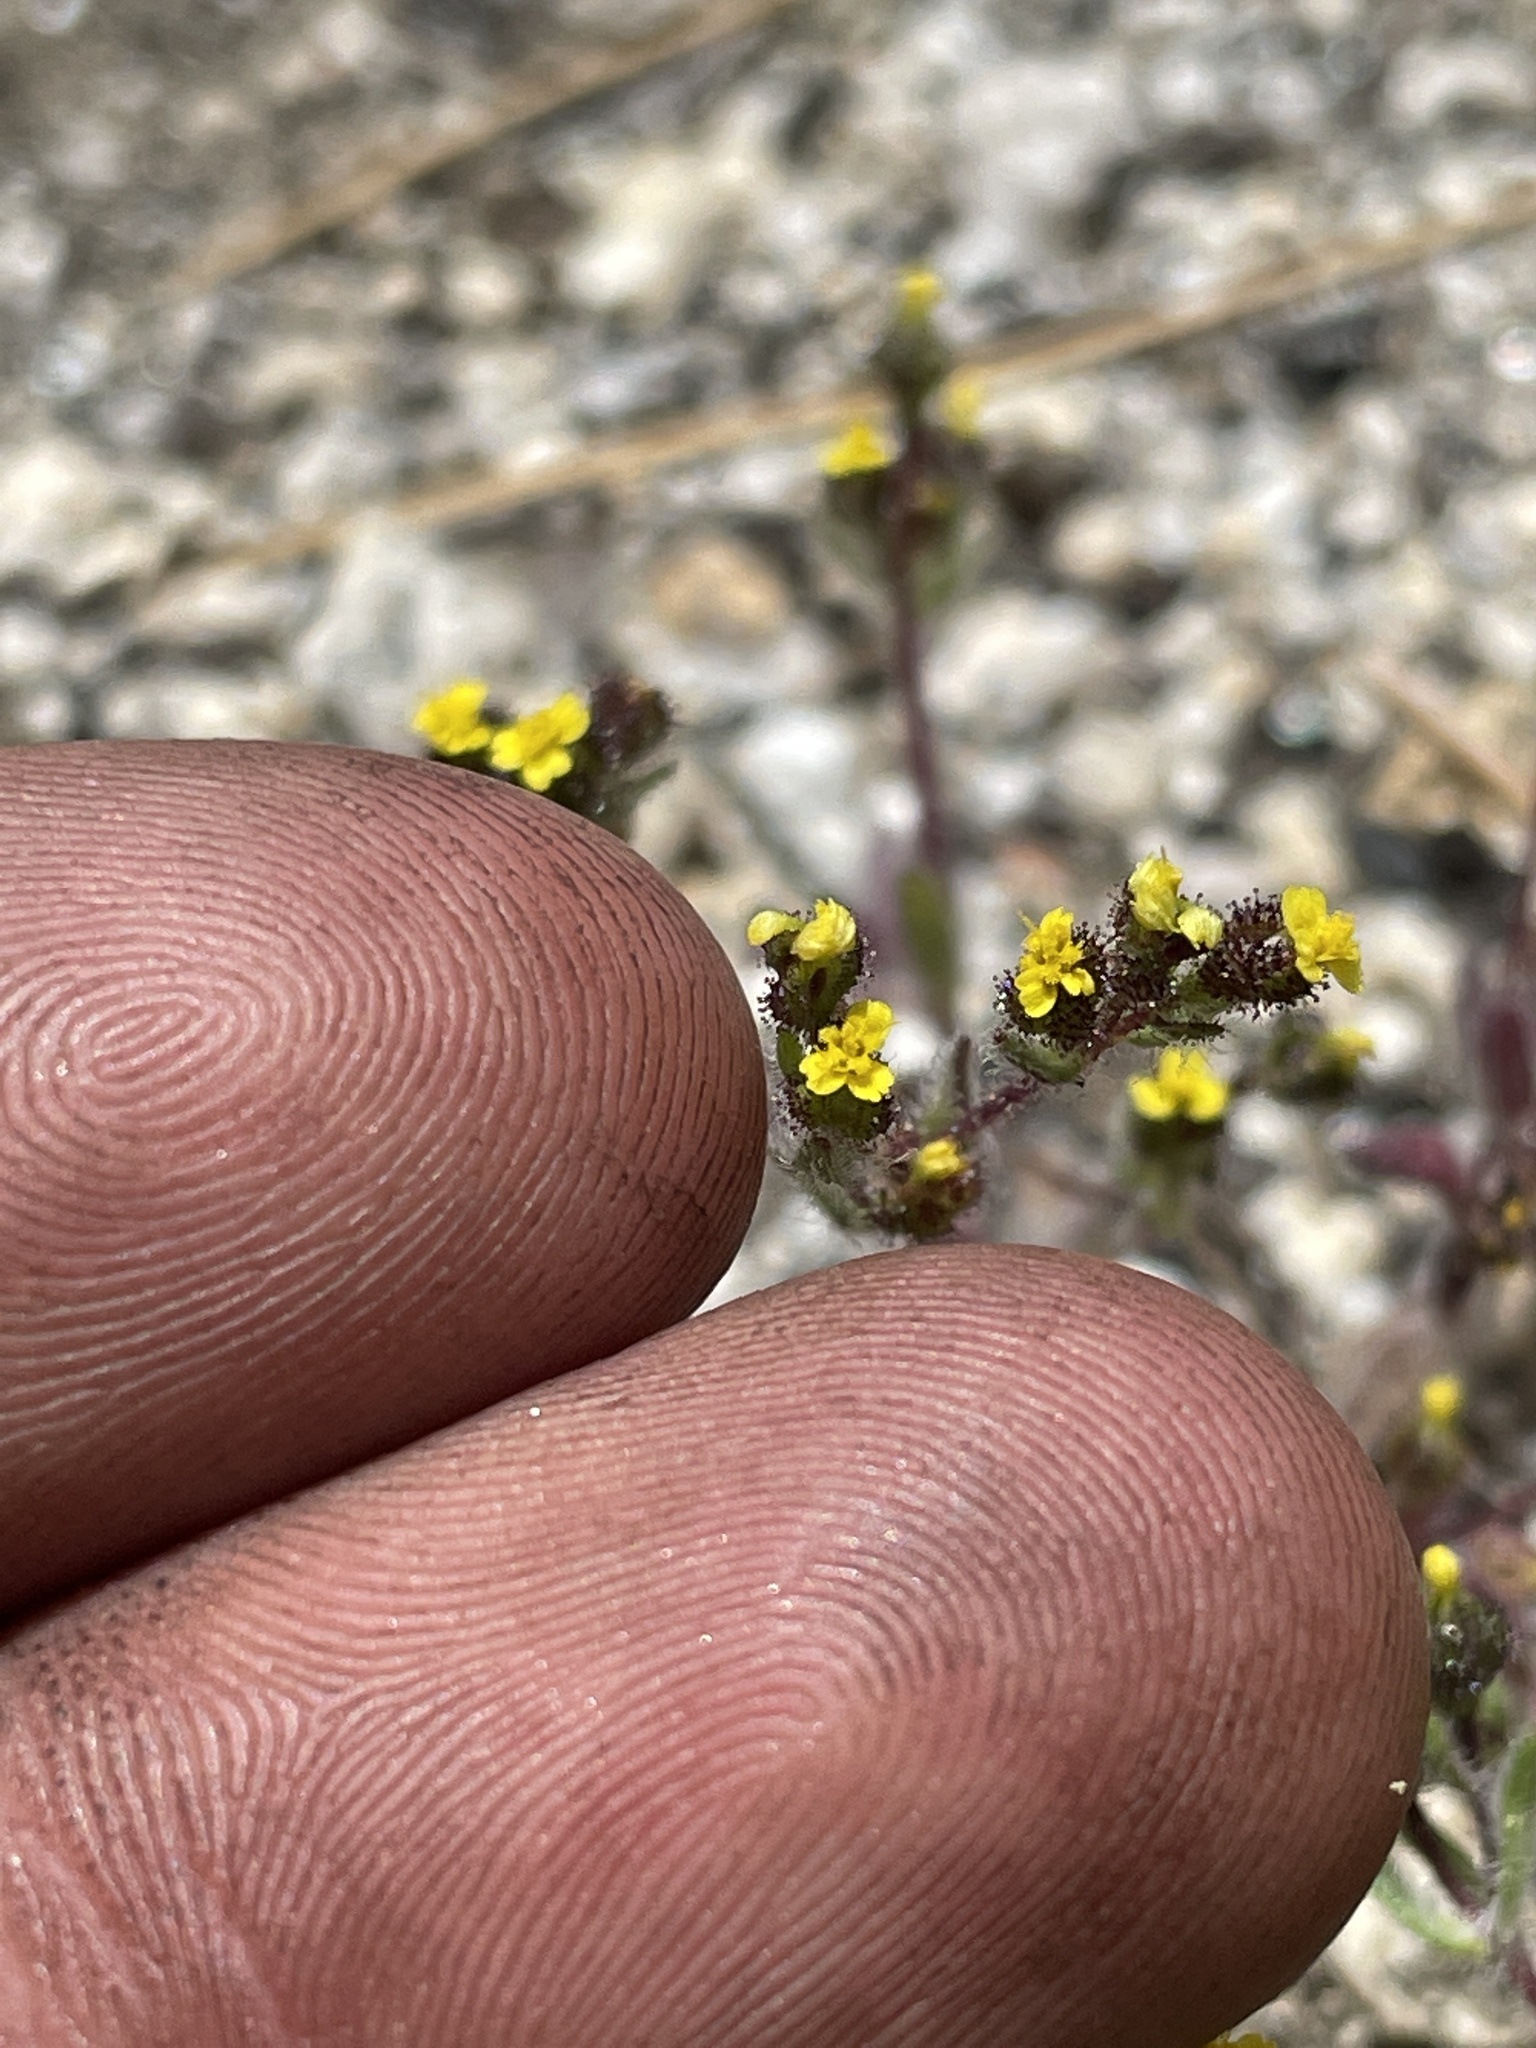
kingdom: Plantae
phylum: Tracheophyta
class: Magnoliopsida
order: Asterales
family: Asteraceae
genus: Hemizonella
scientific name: Hemizonella minima
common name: Opposite-leaved tarweed
